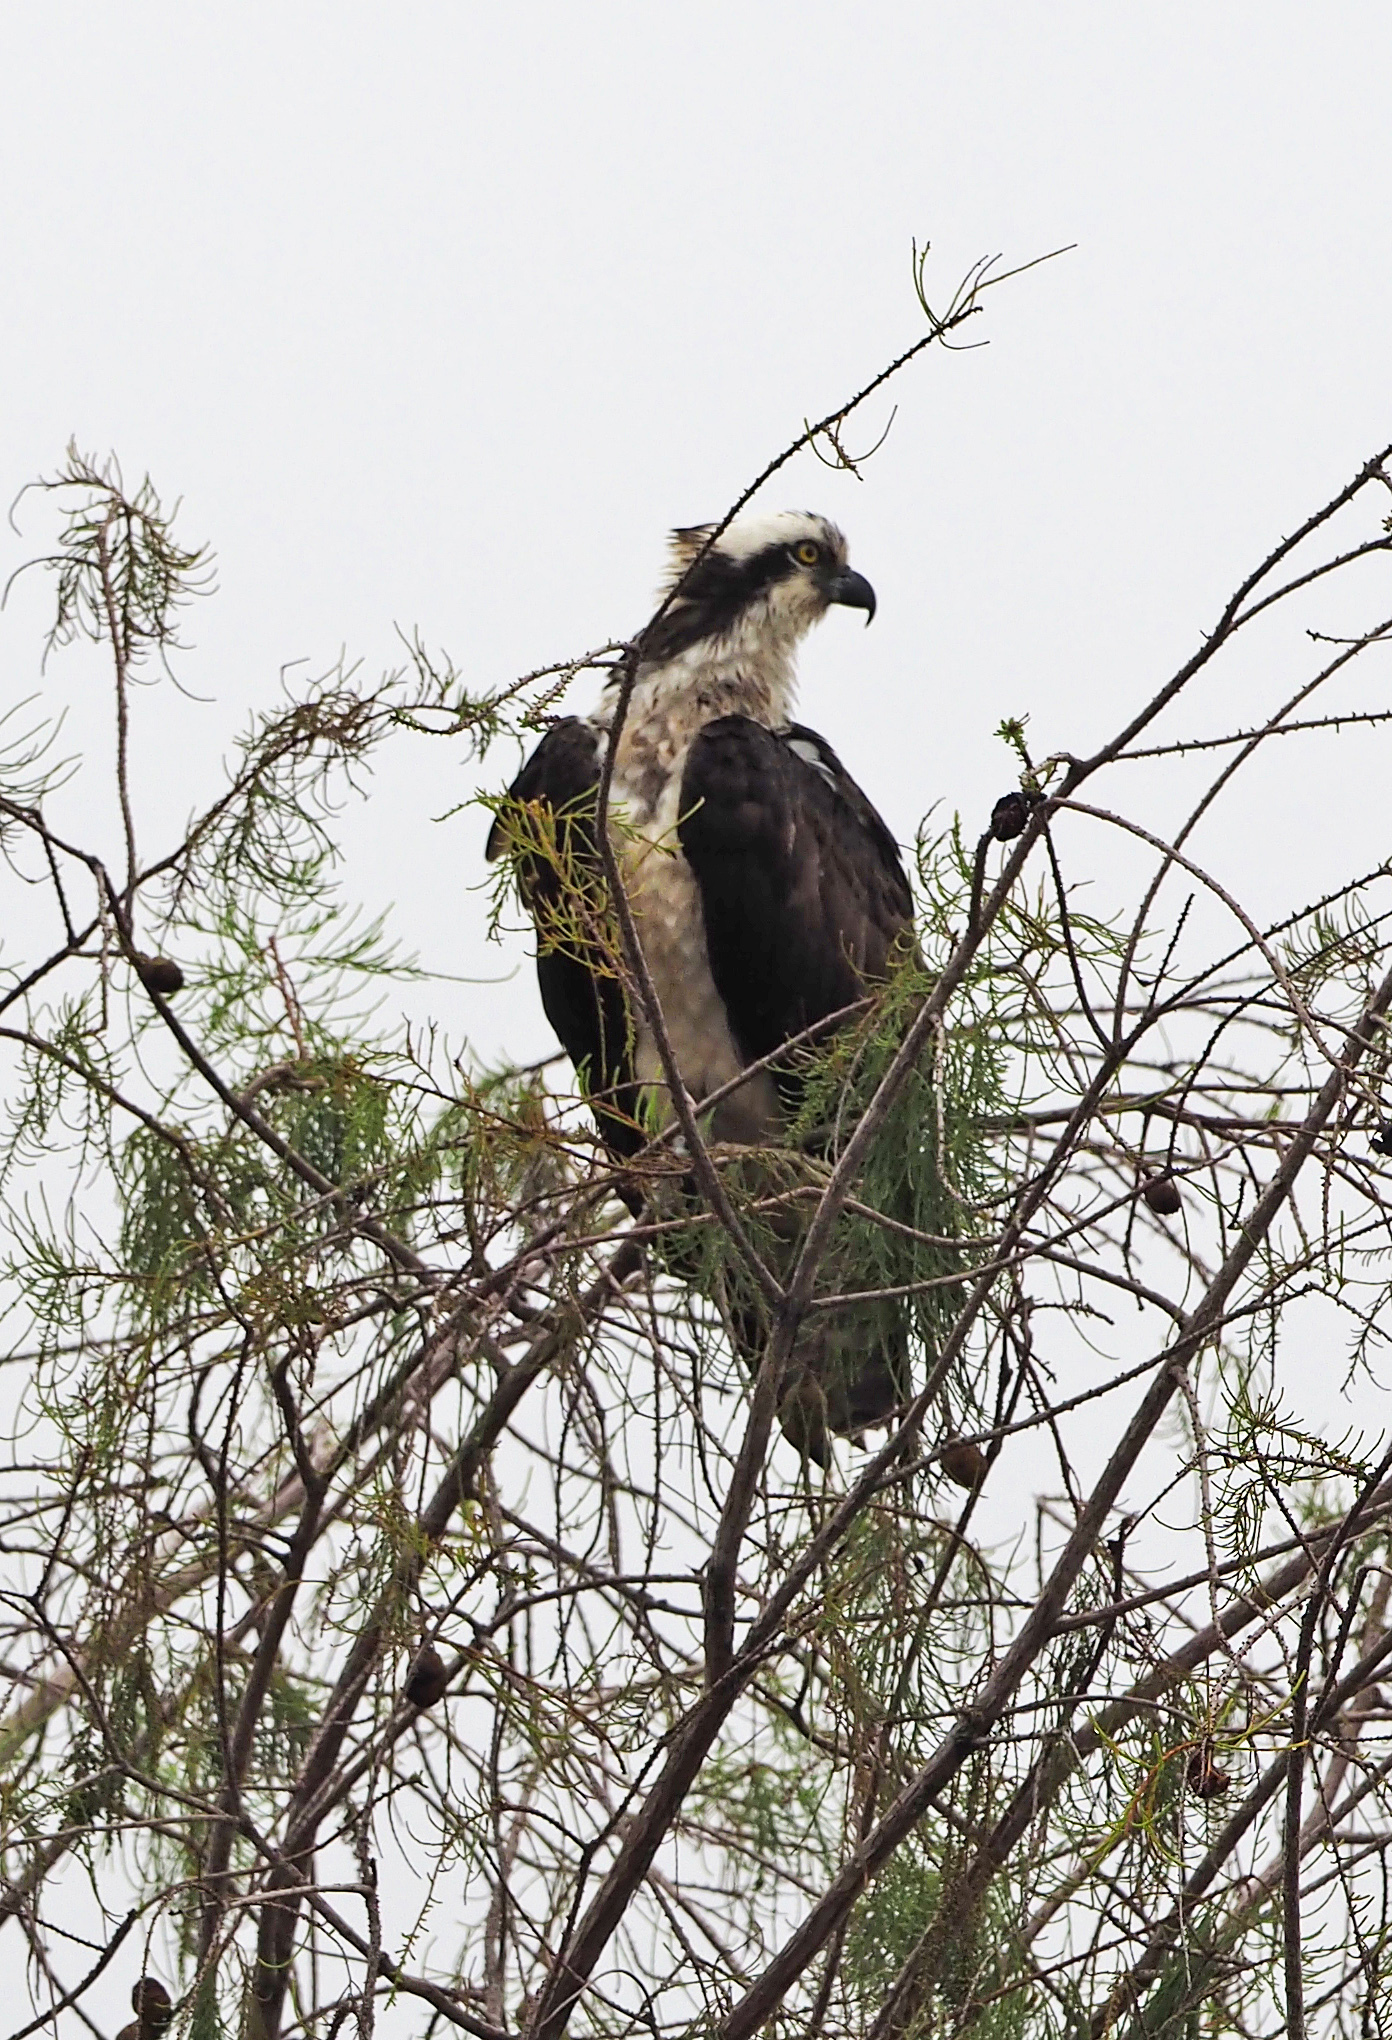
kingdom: Animalia
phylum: Chordata
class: Aves
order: Accipitriformes
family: Pandionidae
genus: Pandion
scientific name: Pandion haliaetus
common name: Osprey
